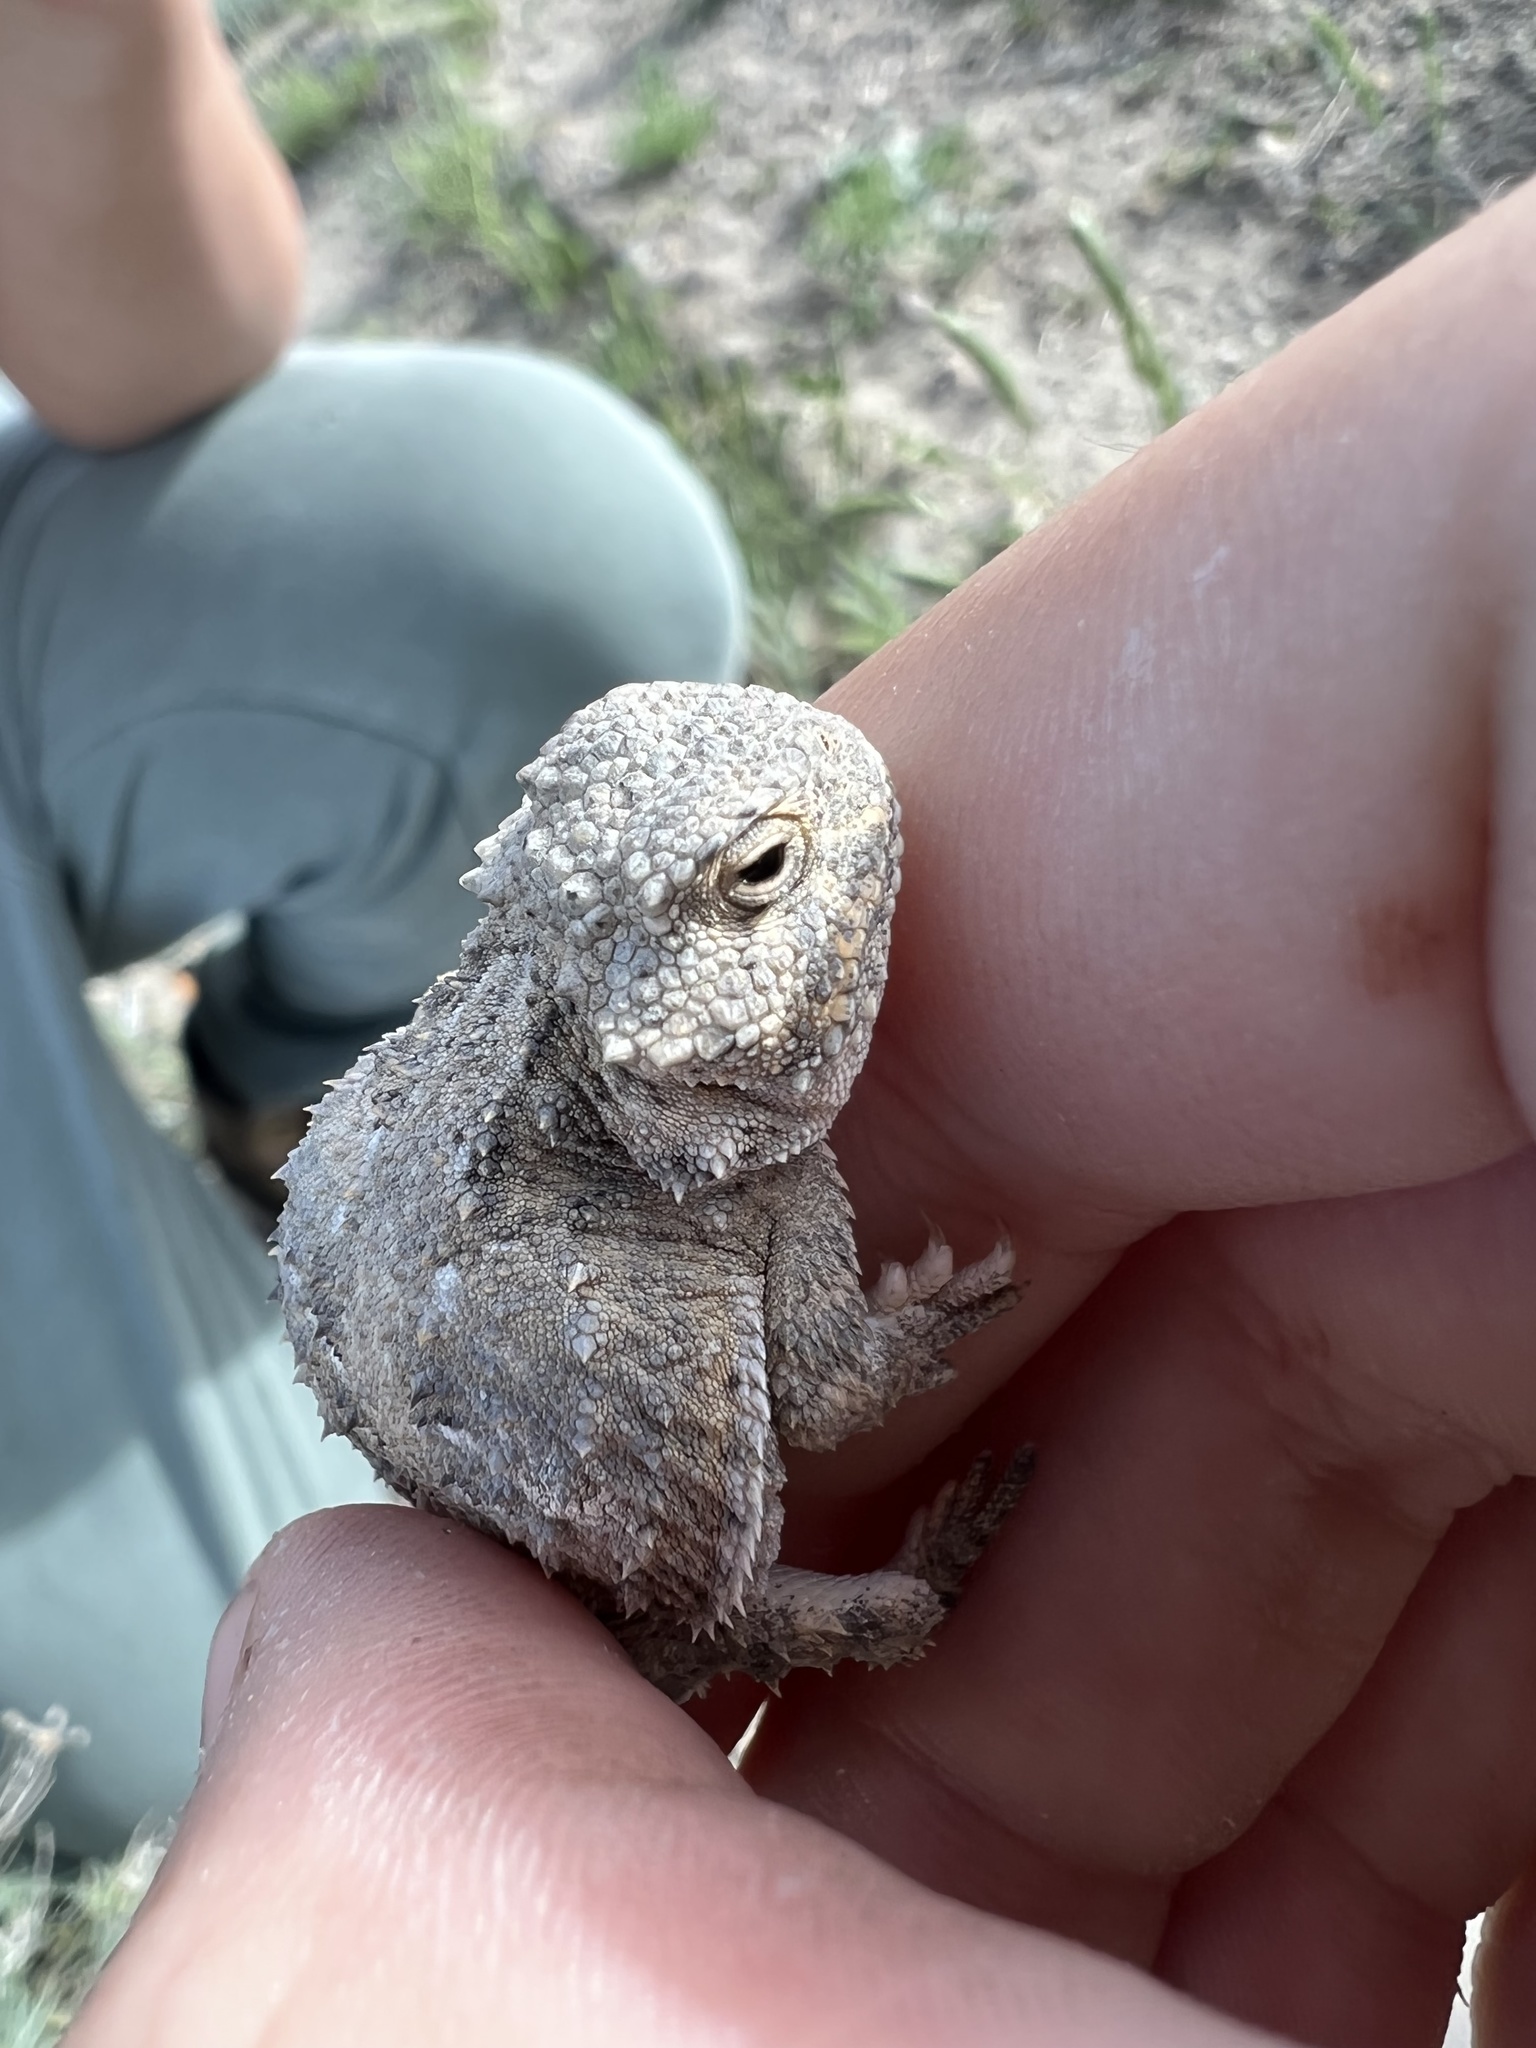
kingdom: Animalia
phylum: Chordata
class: Squamata
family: Phrynosomatidae
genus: Phrynosoma
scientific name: Phrynosoma hernandesi
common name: Greater short-horned lizard
